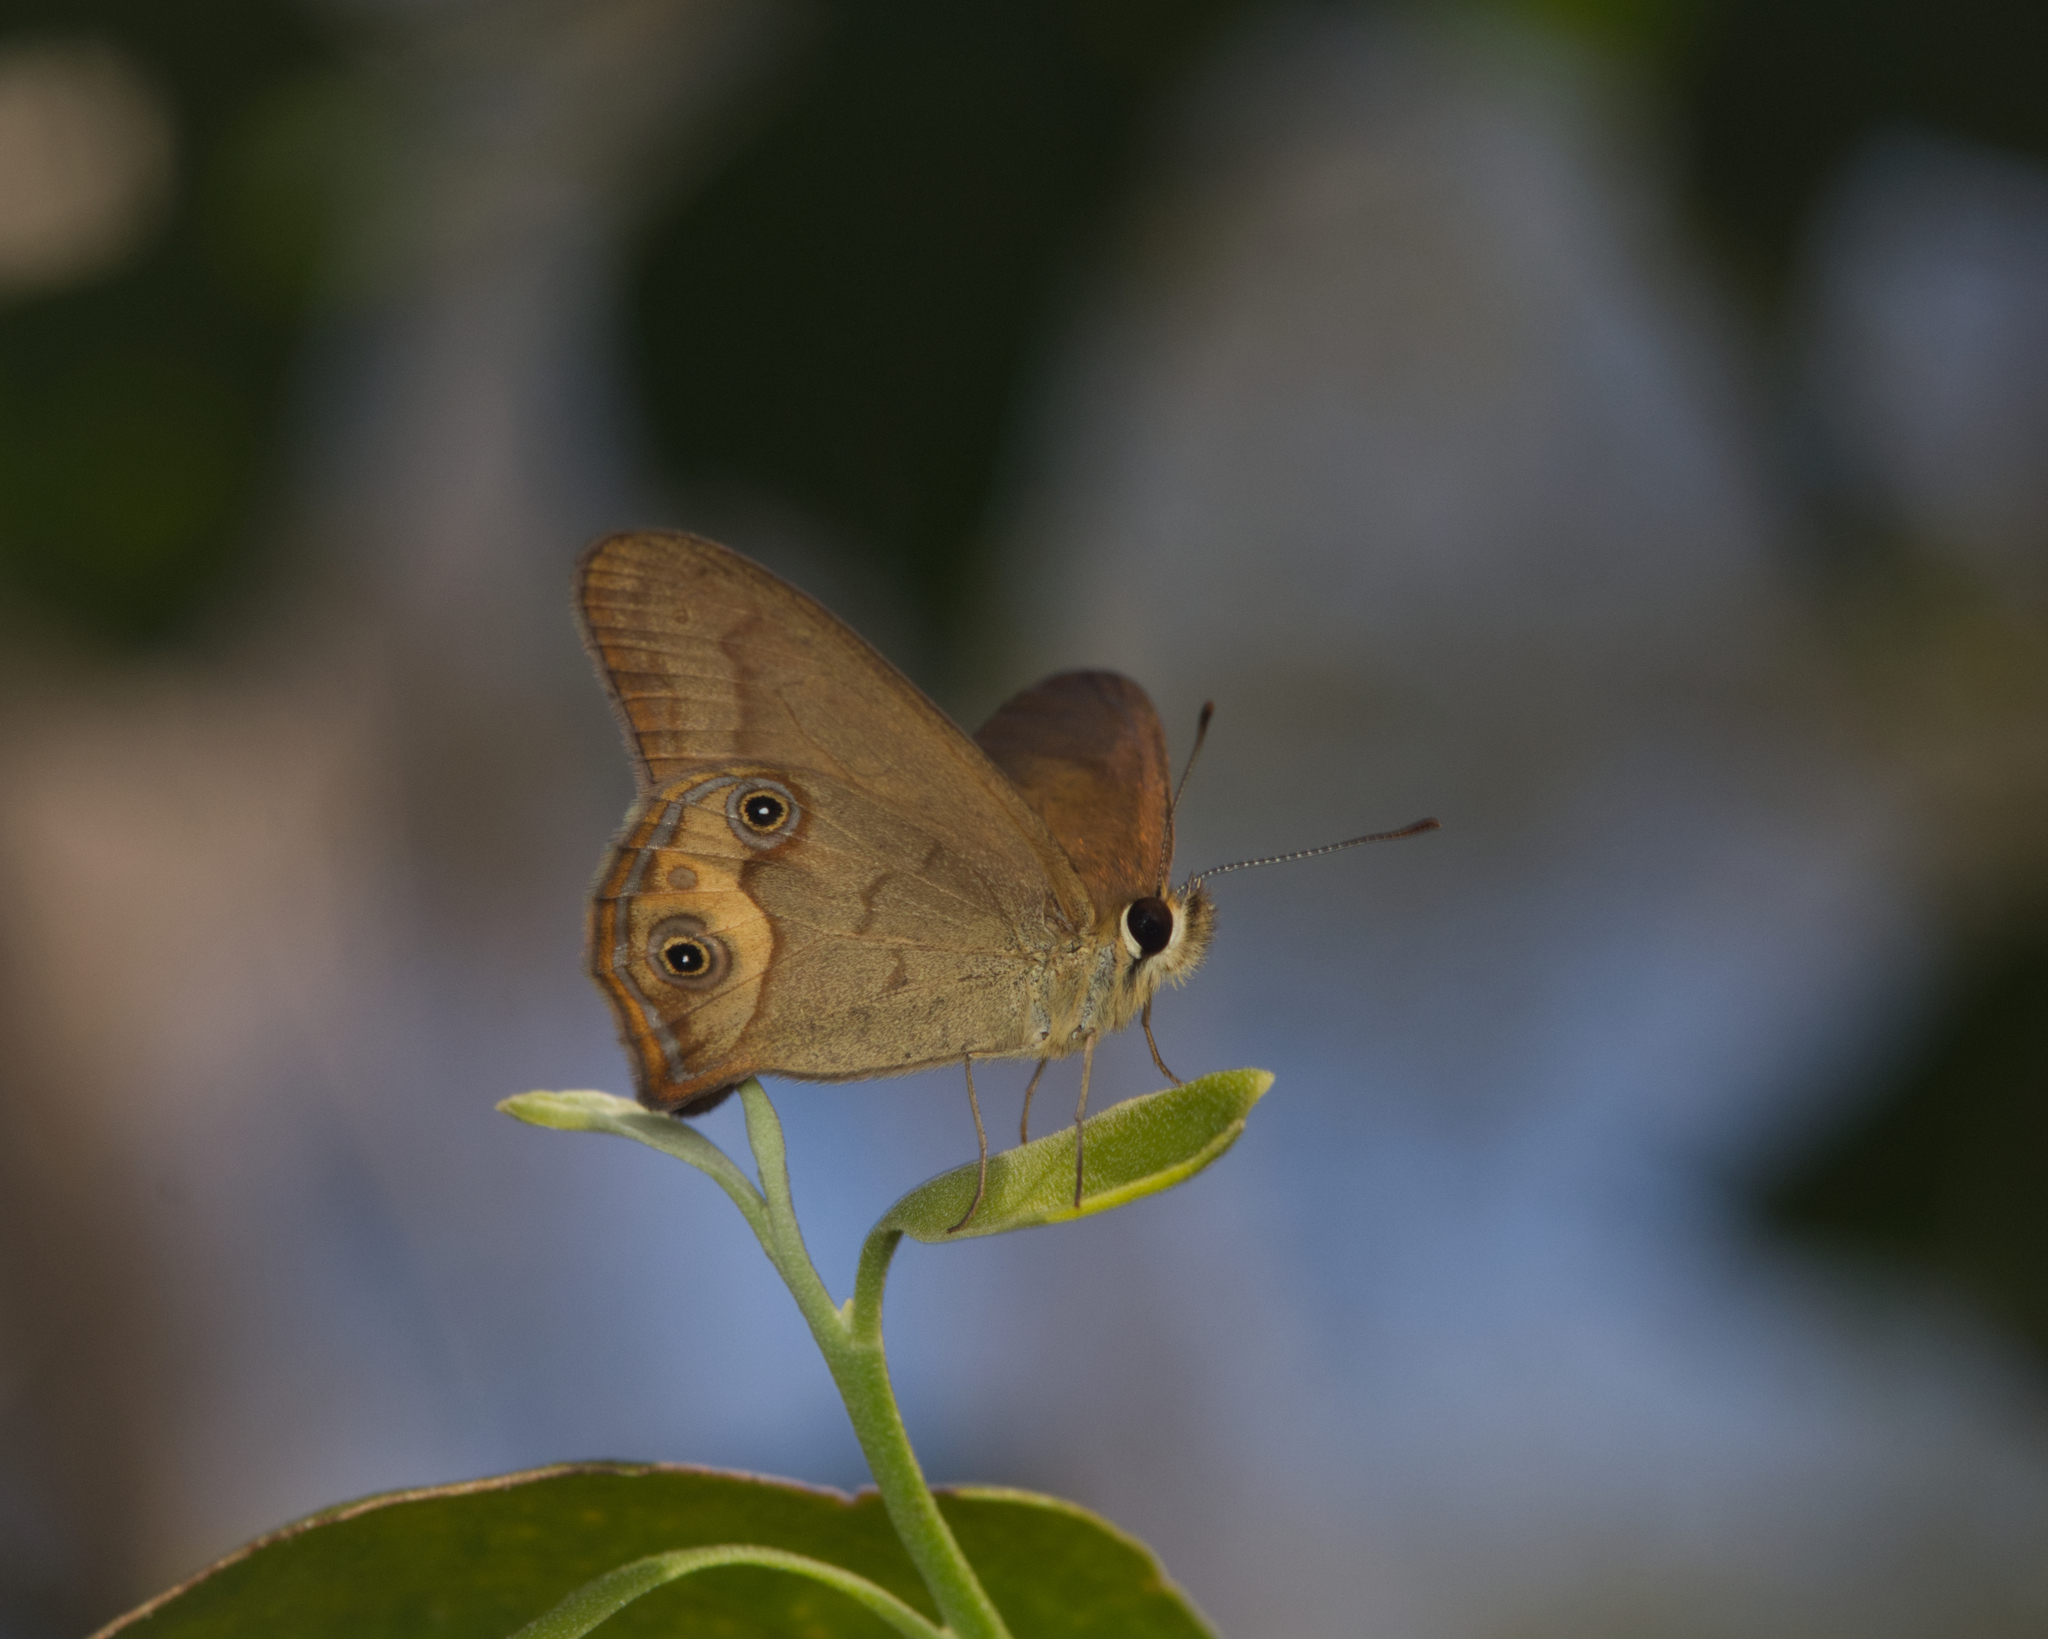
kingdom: Animalia
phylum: Arthropoda
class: Insecta
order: Lepidoptera
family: Nymphalidae
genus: Hypocysta
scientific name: Hypocysta metirius
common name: Brown ringlet
